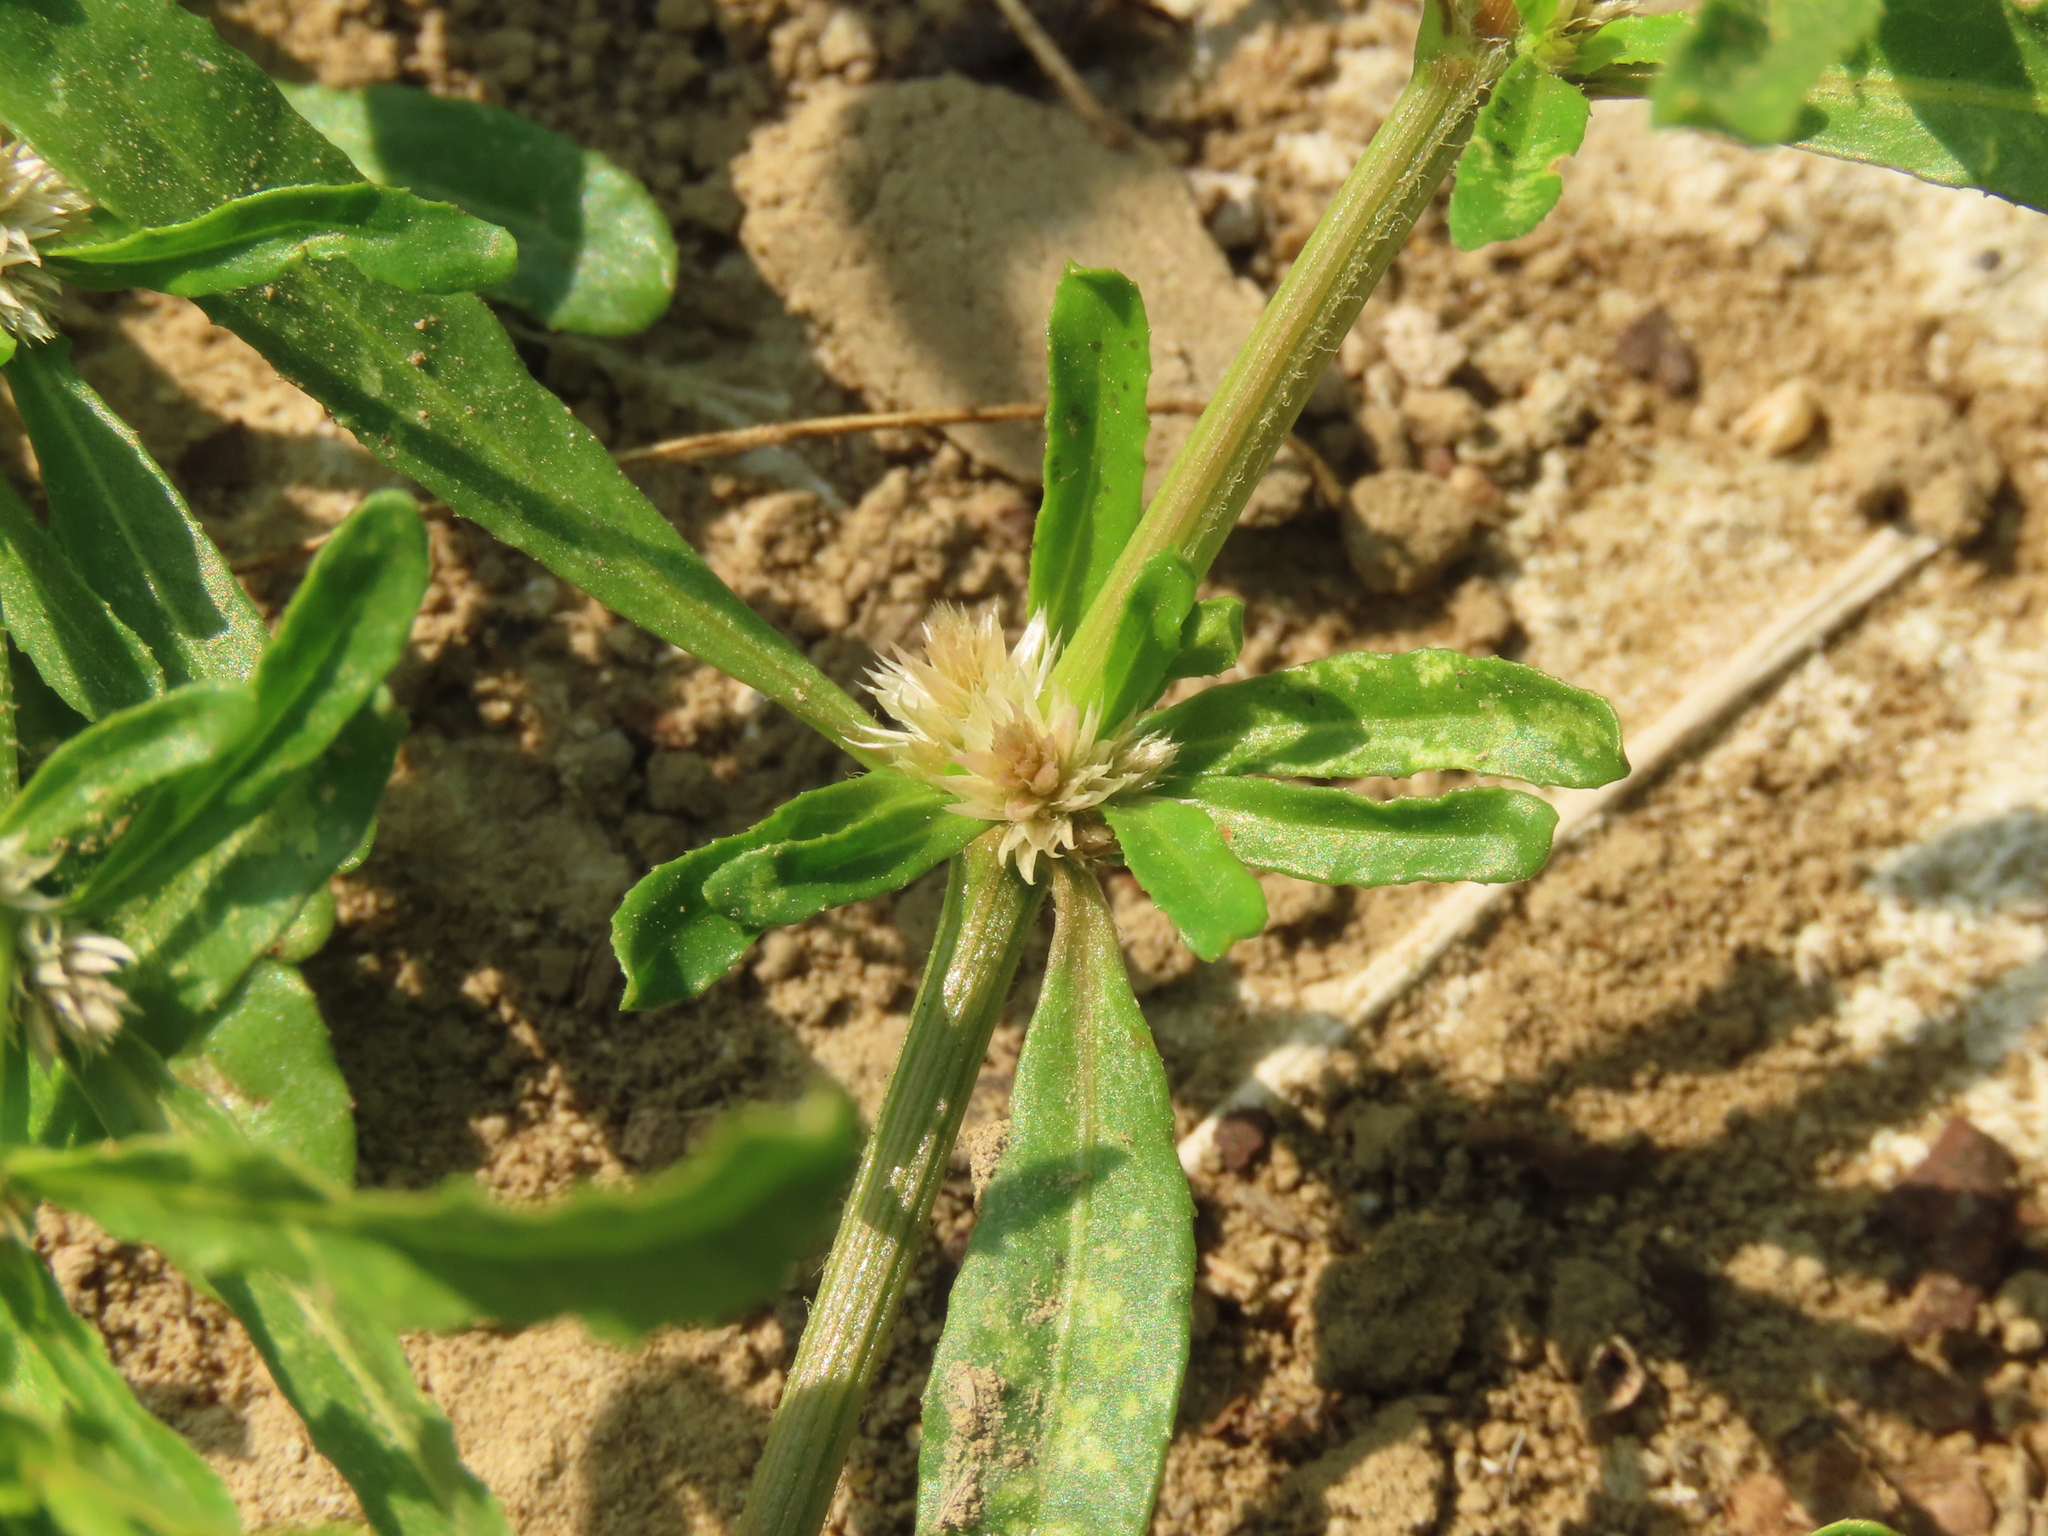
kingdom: Plantae
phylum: Tracheophyta
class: Magnoliopsida
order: Caryophyllales
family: Amaranthaceae
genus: Alternanthera
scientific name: Alternanthera sessilis
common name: Sessile joyweed
